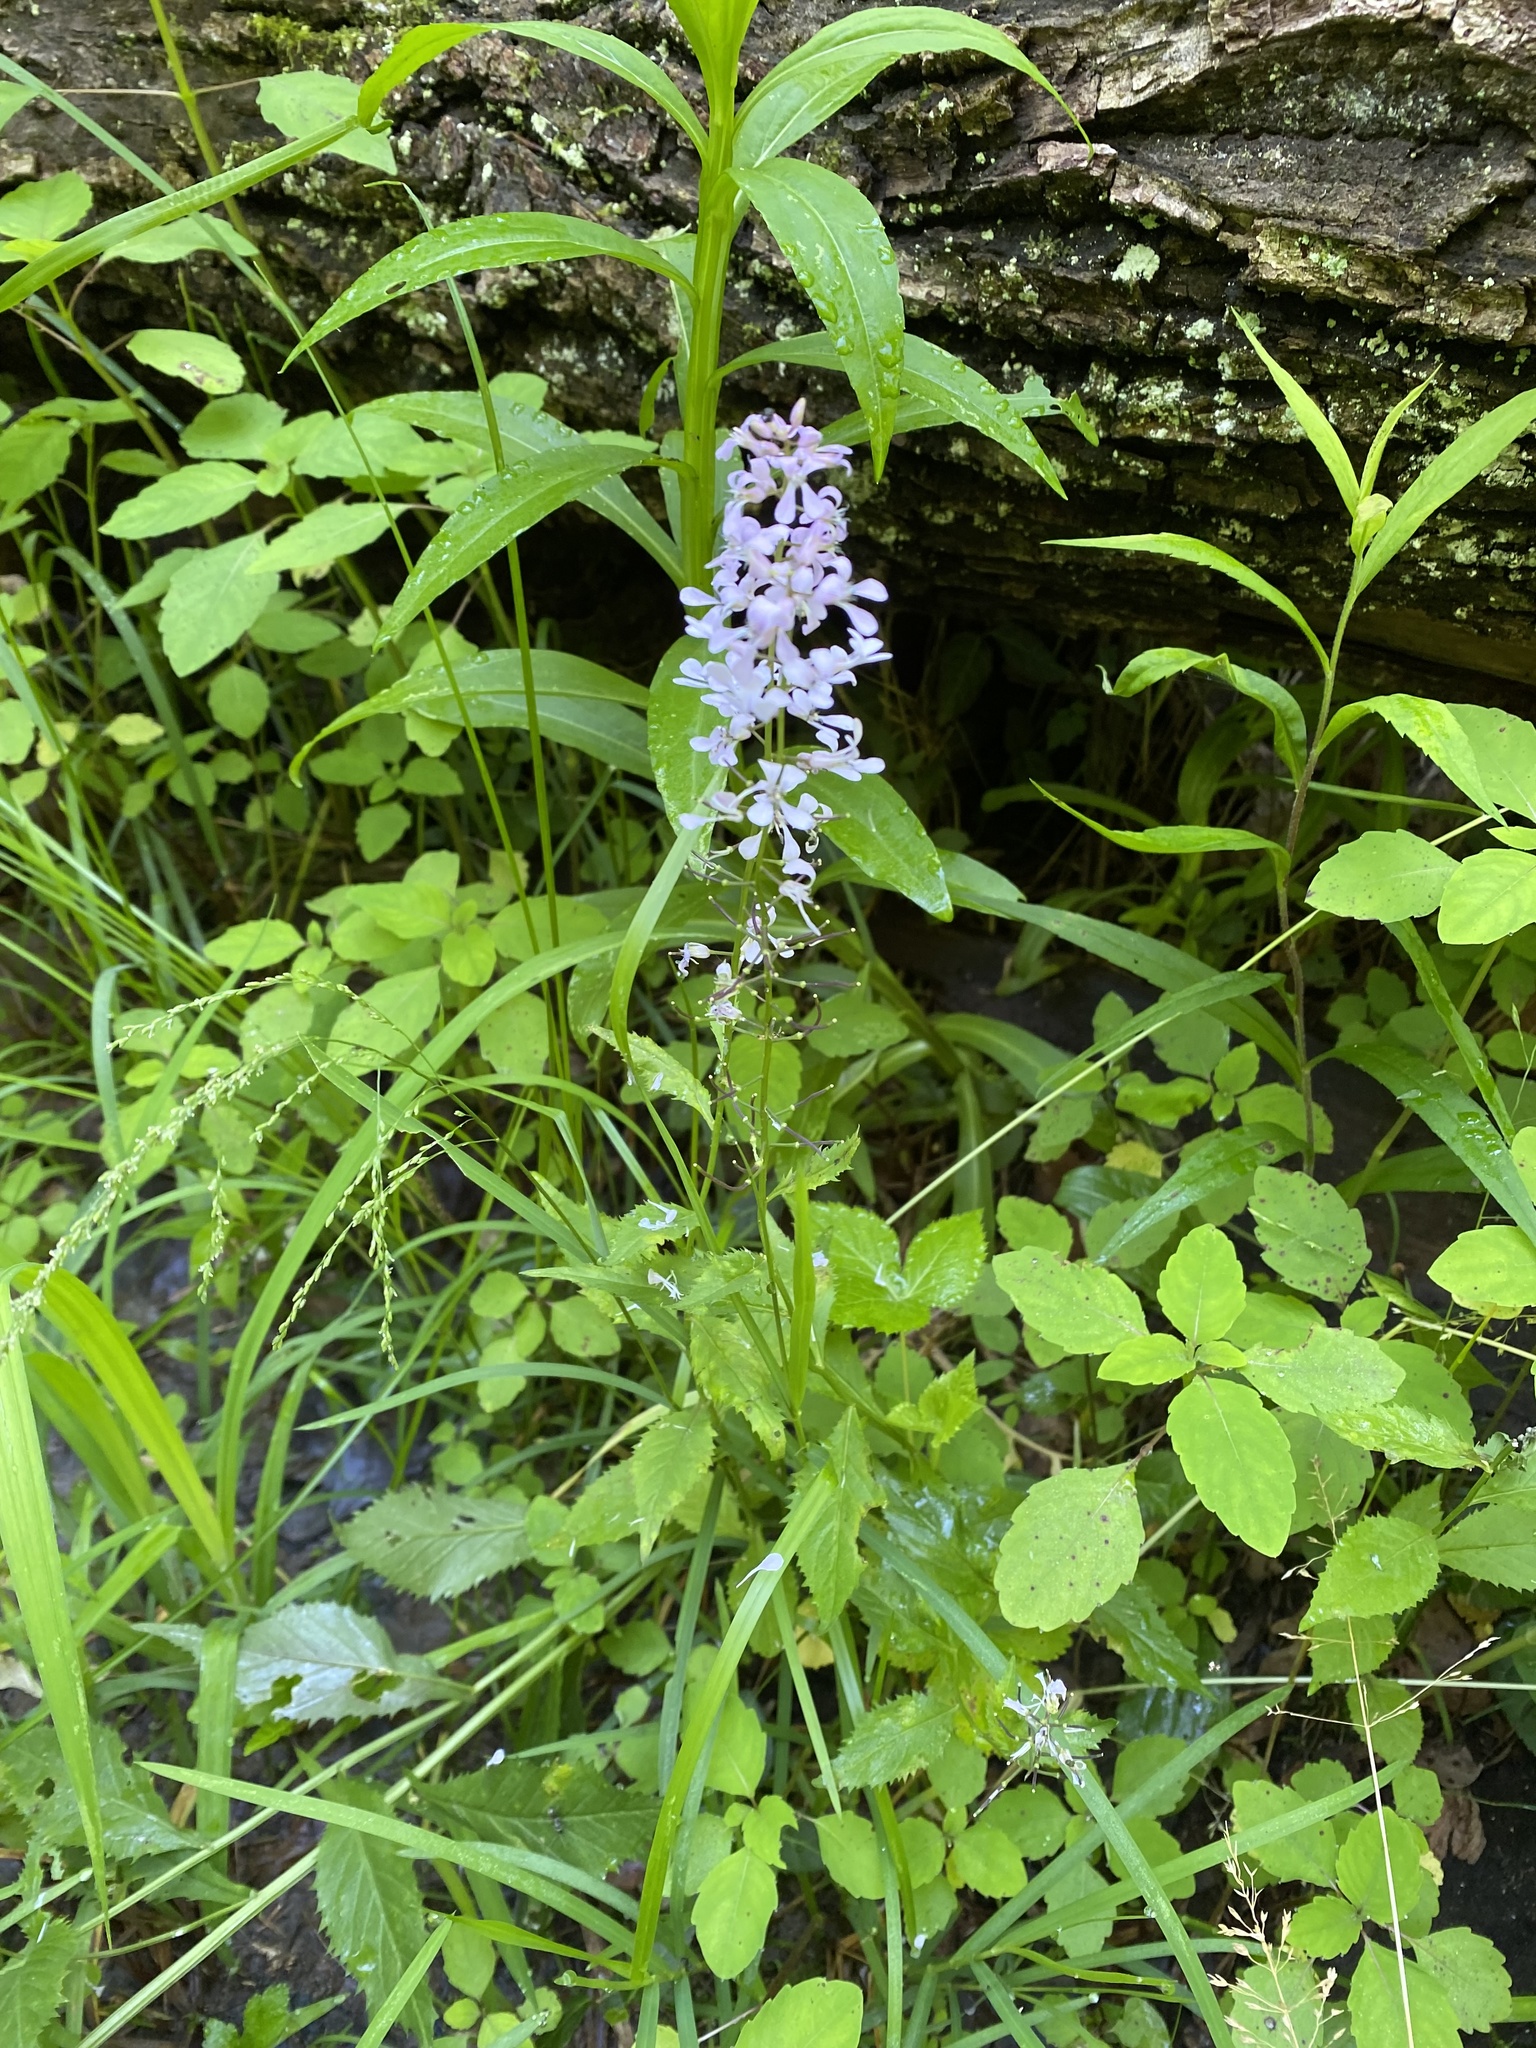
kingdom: Plantae
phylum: Tracheophyta
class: Magnoliopsida
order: Brassicales
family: Brassicaceae
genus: Iodanthus
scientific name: Iodanthus pinnatifidus
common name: Violet rocket
